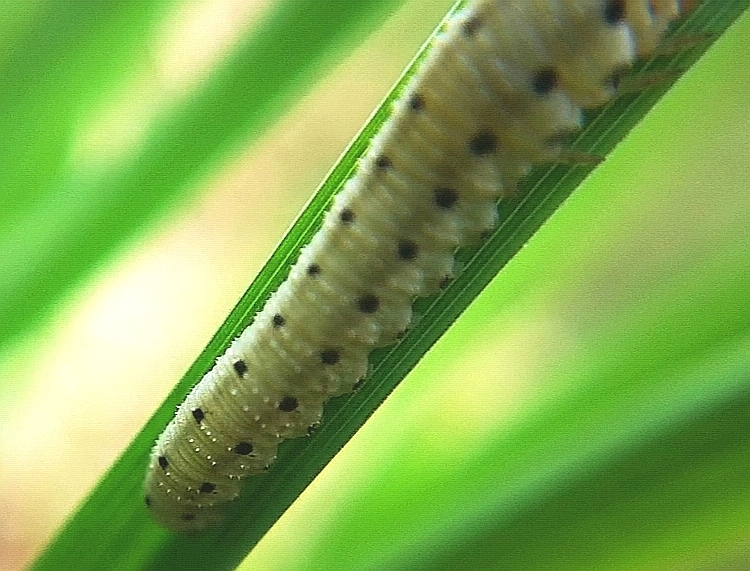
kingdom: Animalia
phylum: Arthropoda
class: Insecta
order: Hymenoptera
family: Tenthredinidae
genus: Sciapteryx
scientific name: Sciapteryx costalis
